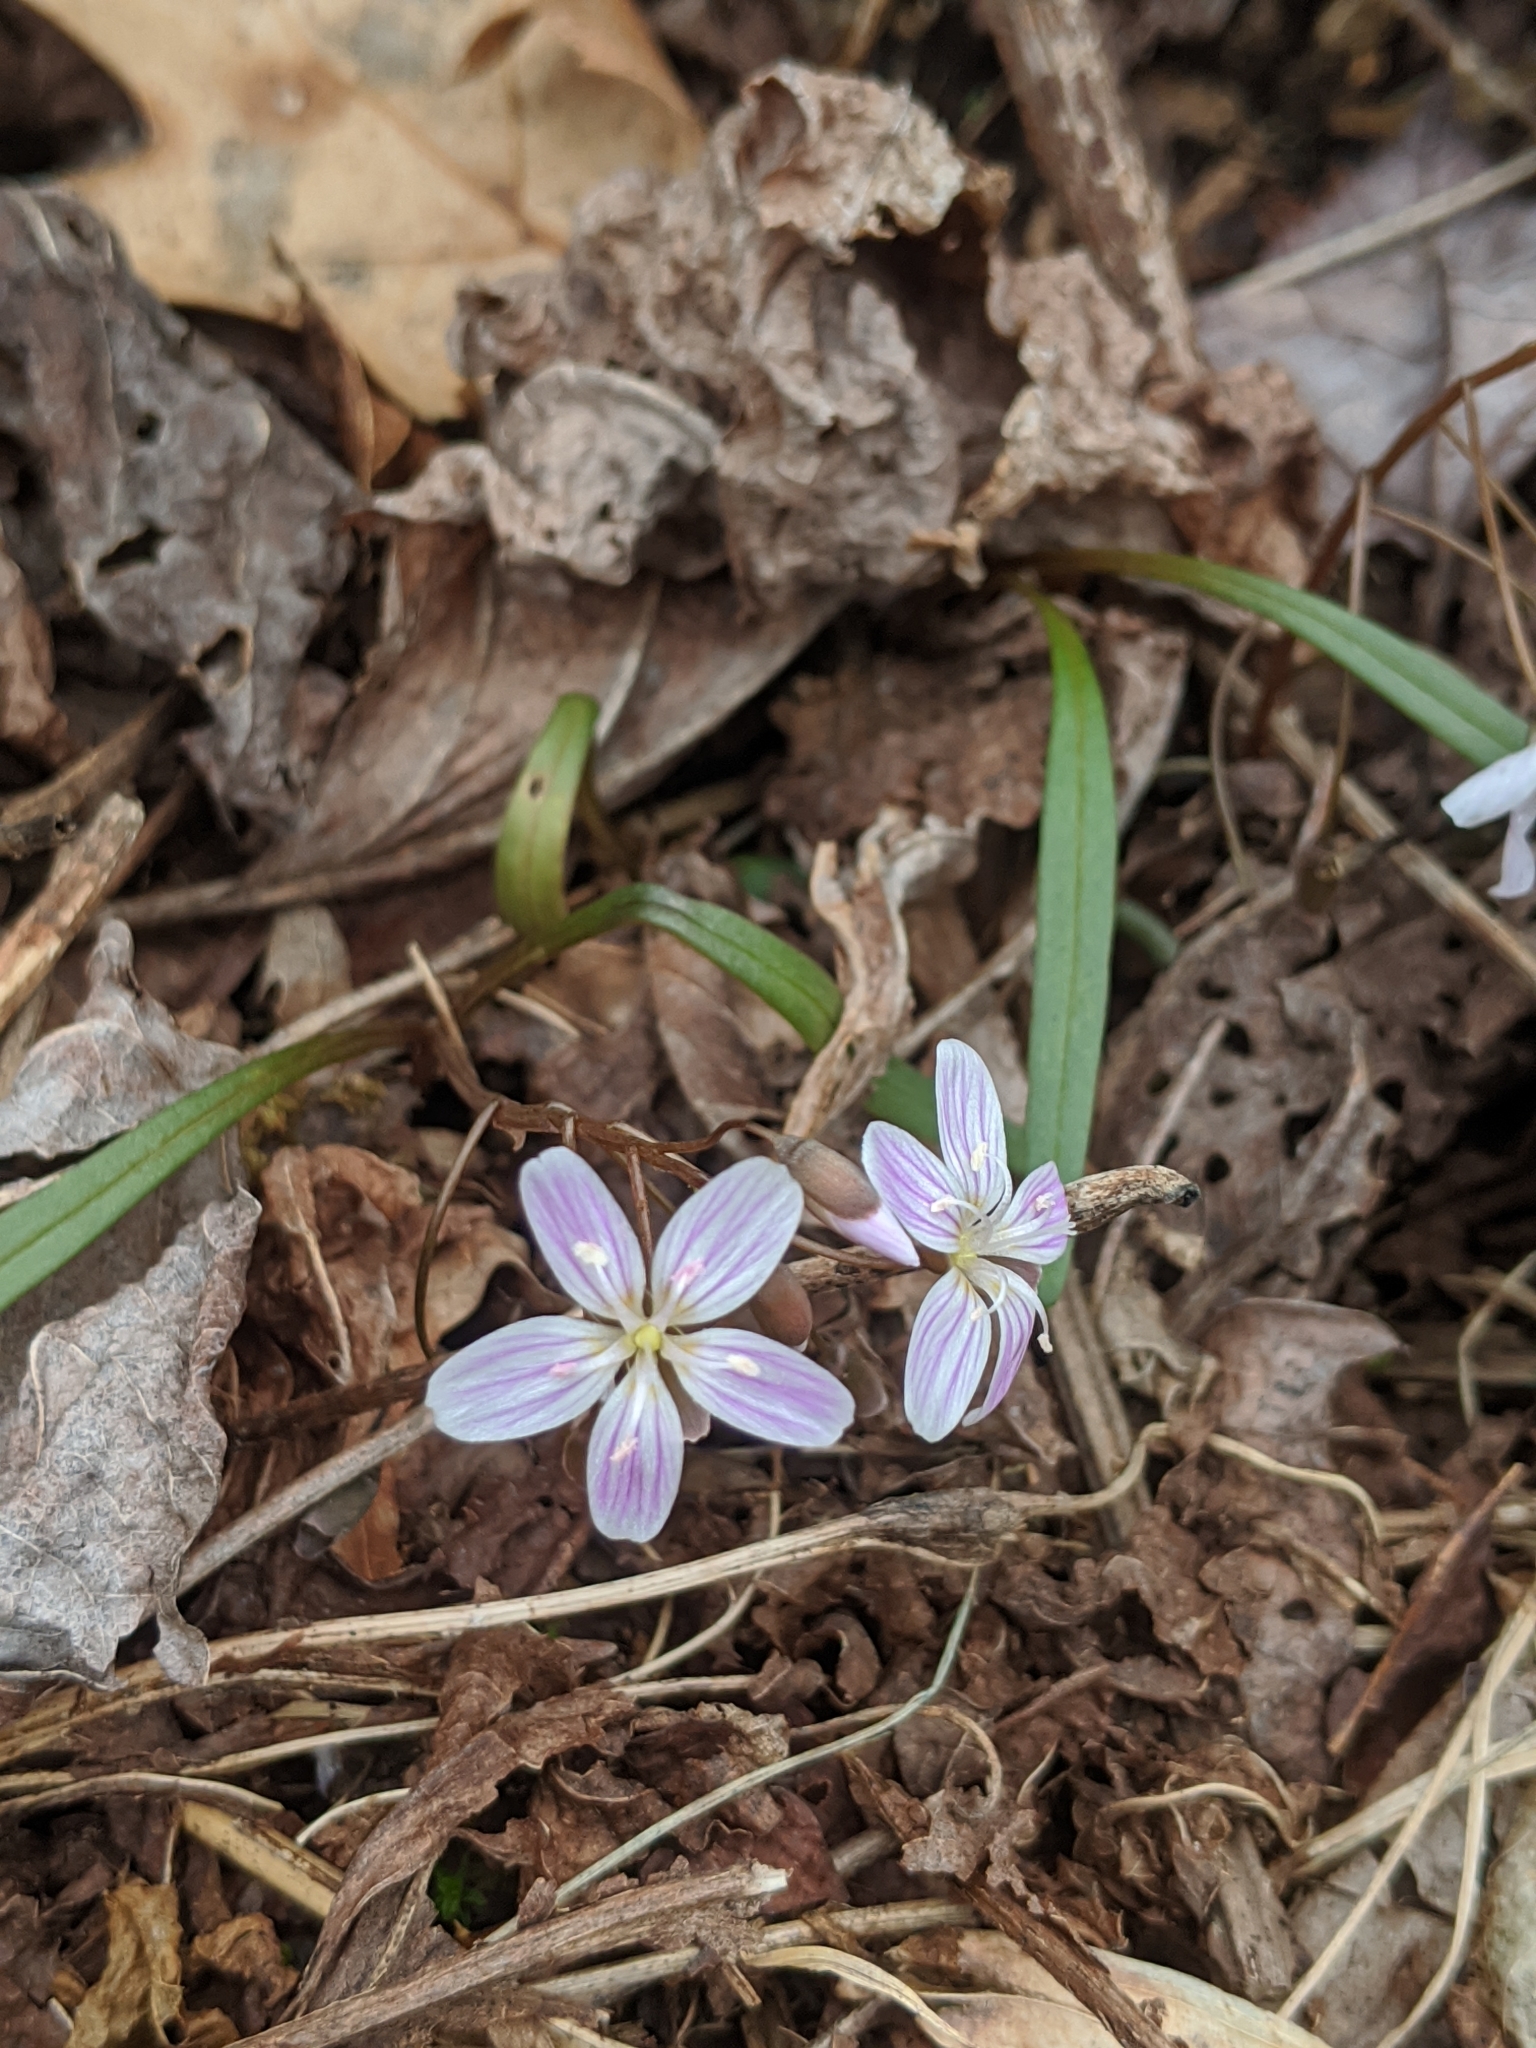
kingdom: Plantae
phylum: Tracheophyta
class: Magnoliopsida
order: Caryophyllales
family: Montiaceae
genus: Claytonia
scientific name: Claytonia virginica
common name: Virginia springbeauty
